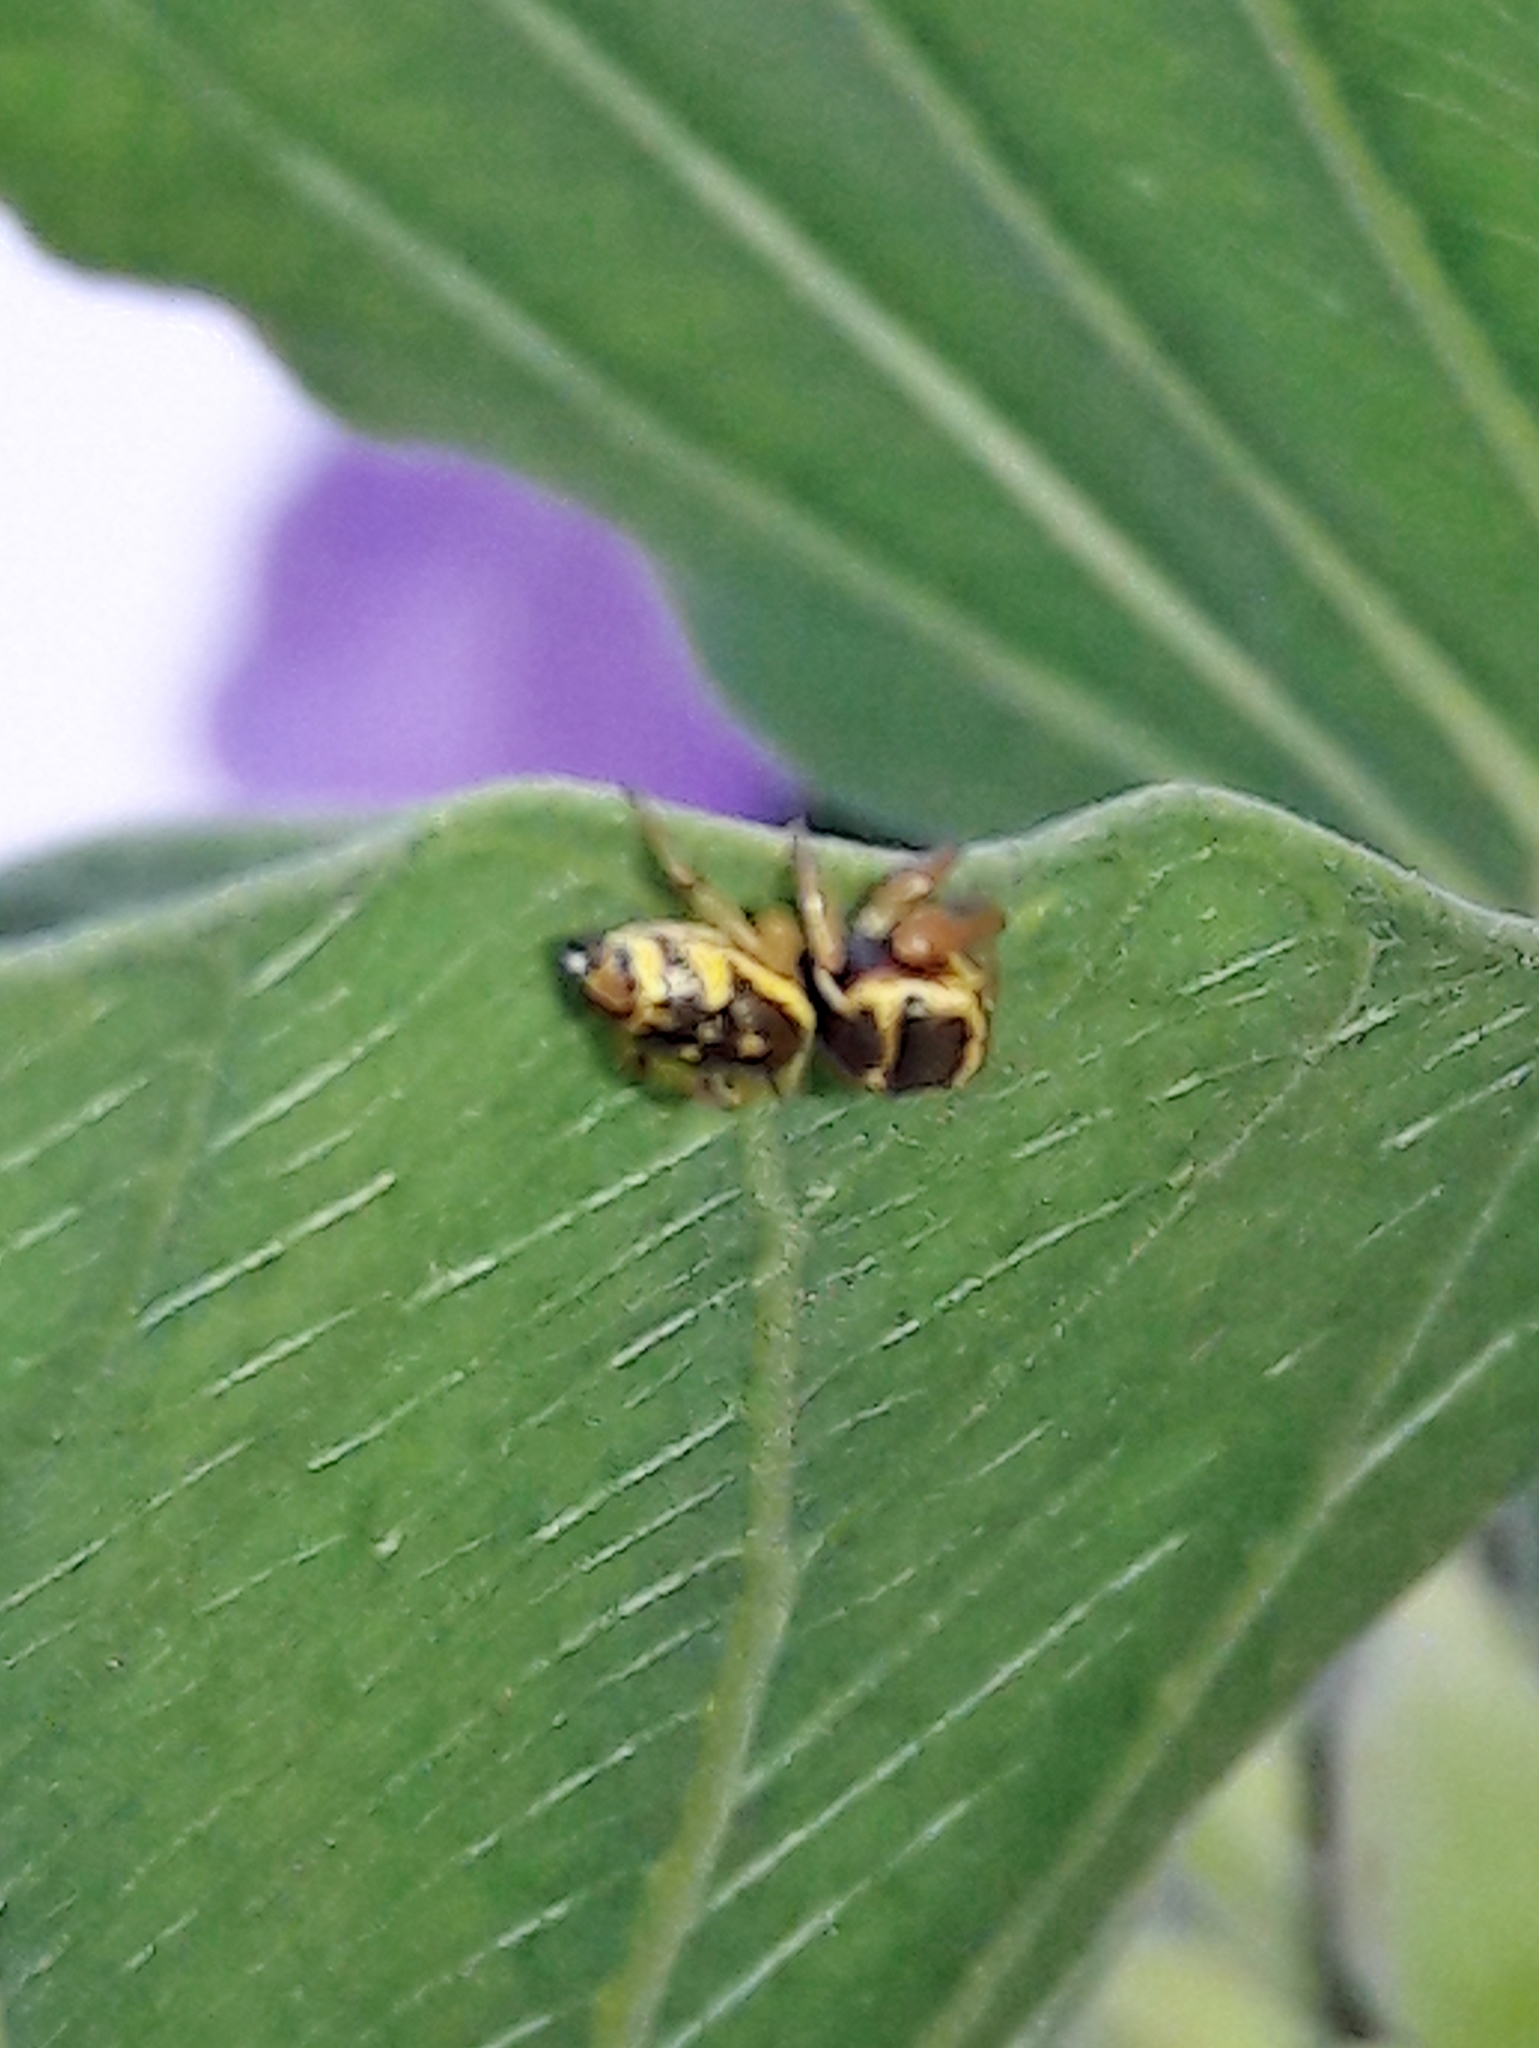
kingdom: Animalia
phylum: Arthropoda
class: Arachnida
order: Araneae
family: Salticidae
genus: Sassacus
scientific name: Sassacus aurantiacus
